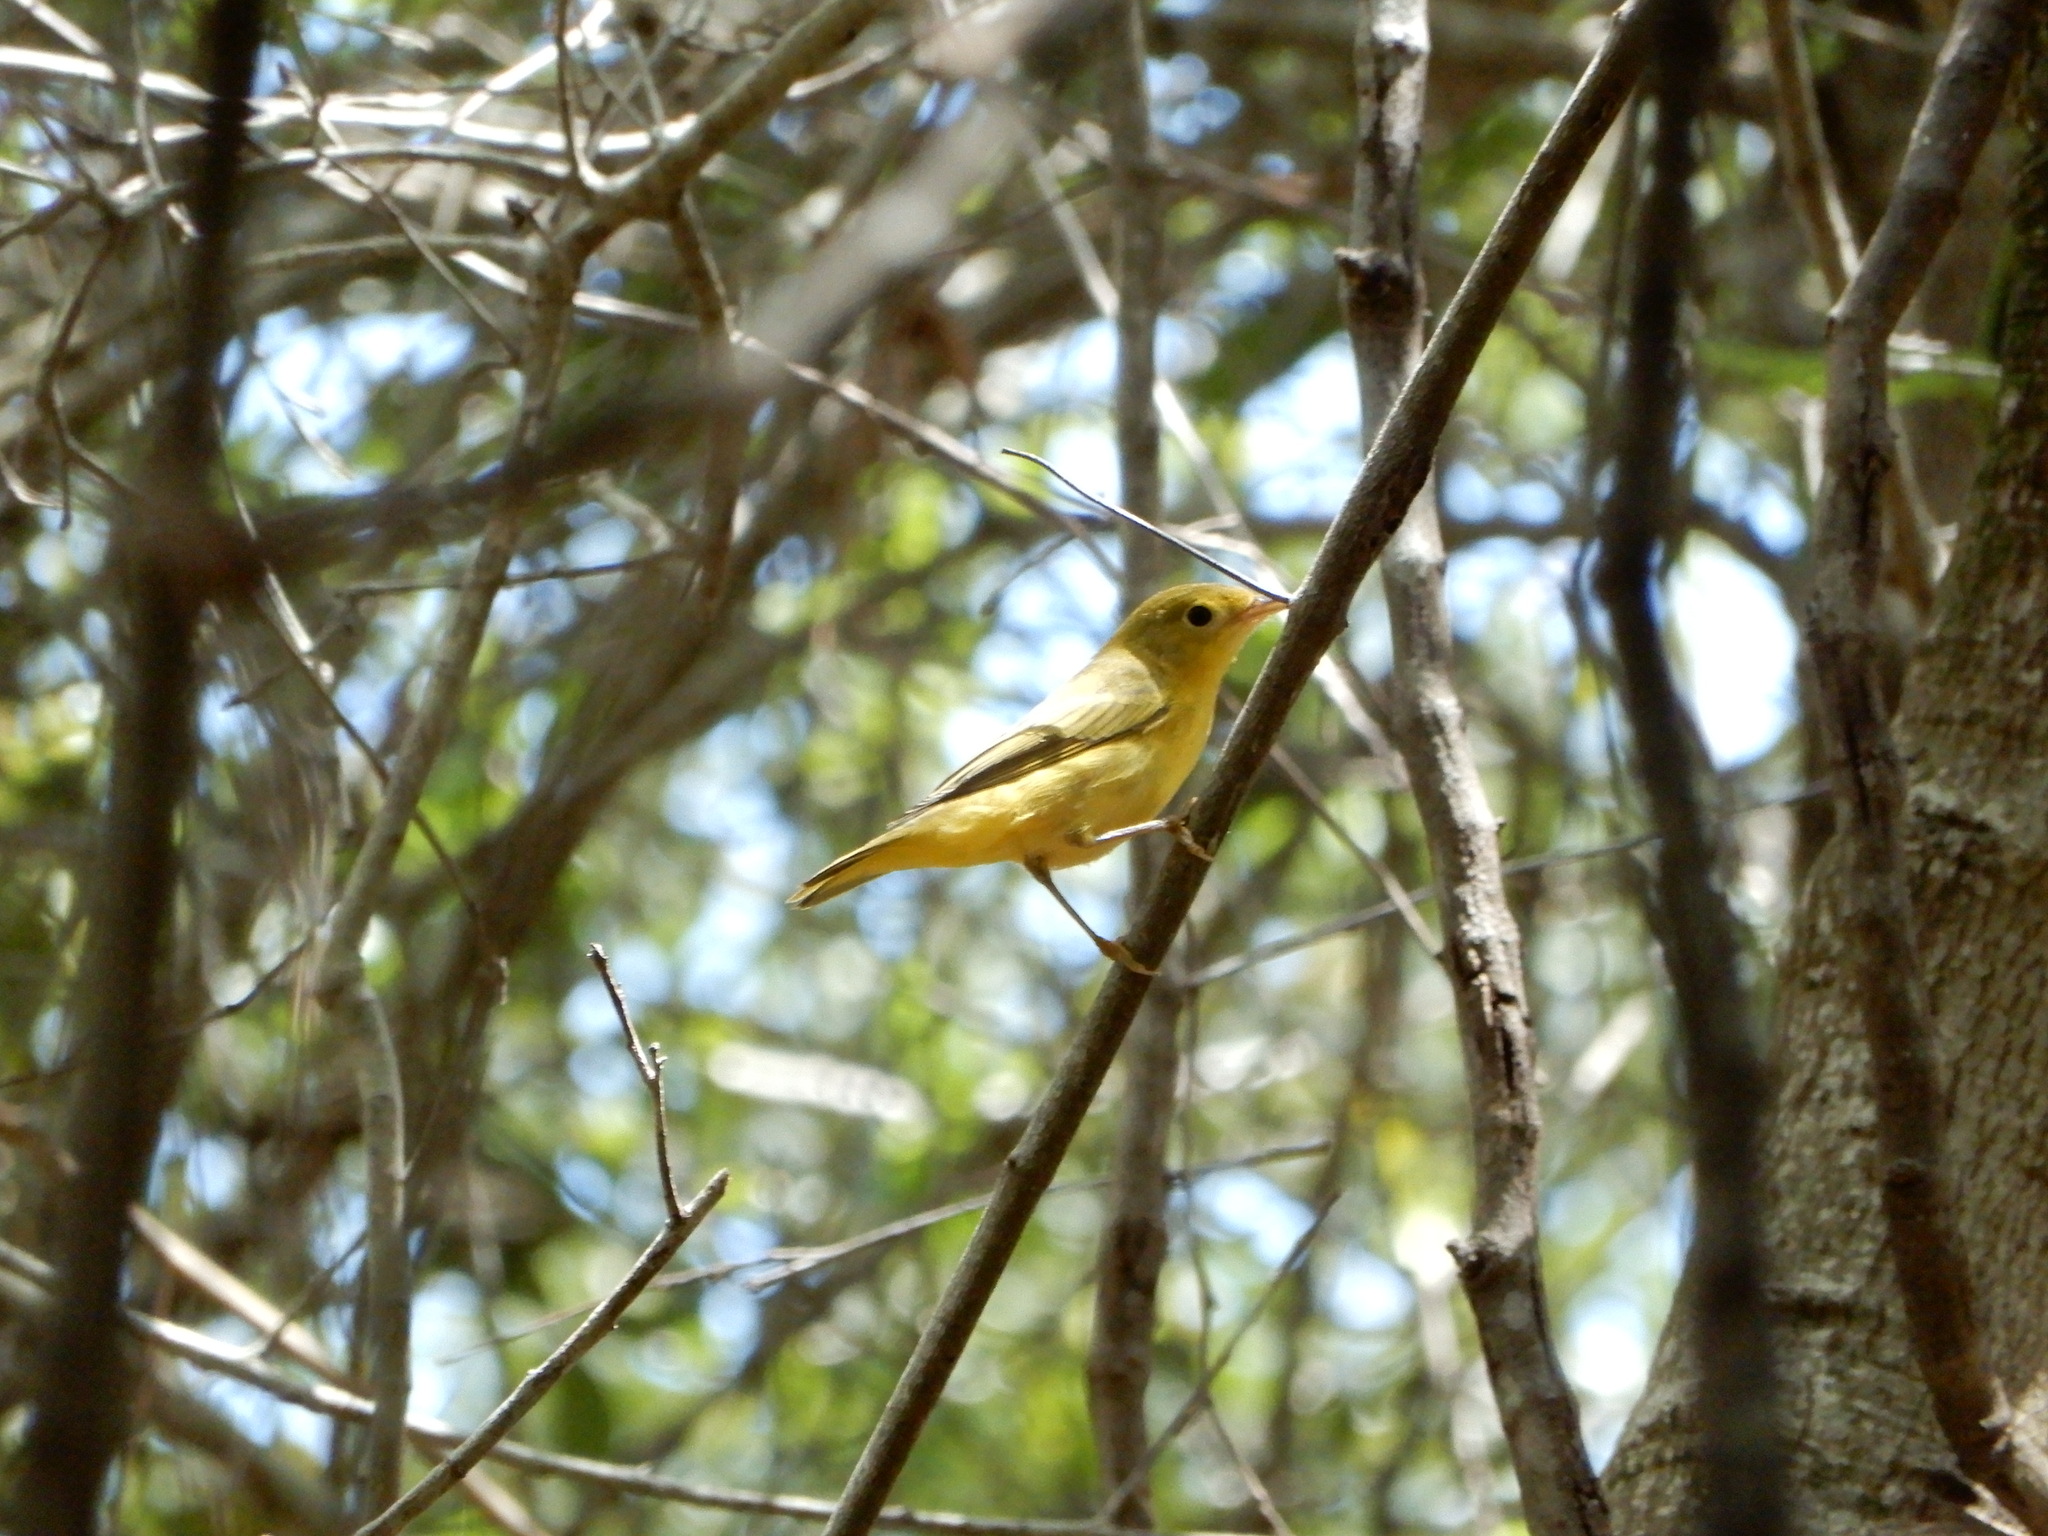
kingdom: Animalia
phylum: Chordata
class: Aves
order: Passeriformes
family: Parulidae
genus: Setophaga
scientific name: Setophaga petechia
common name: Yellow warbler
